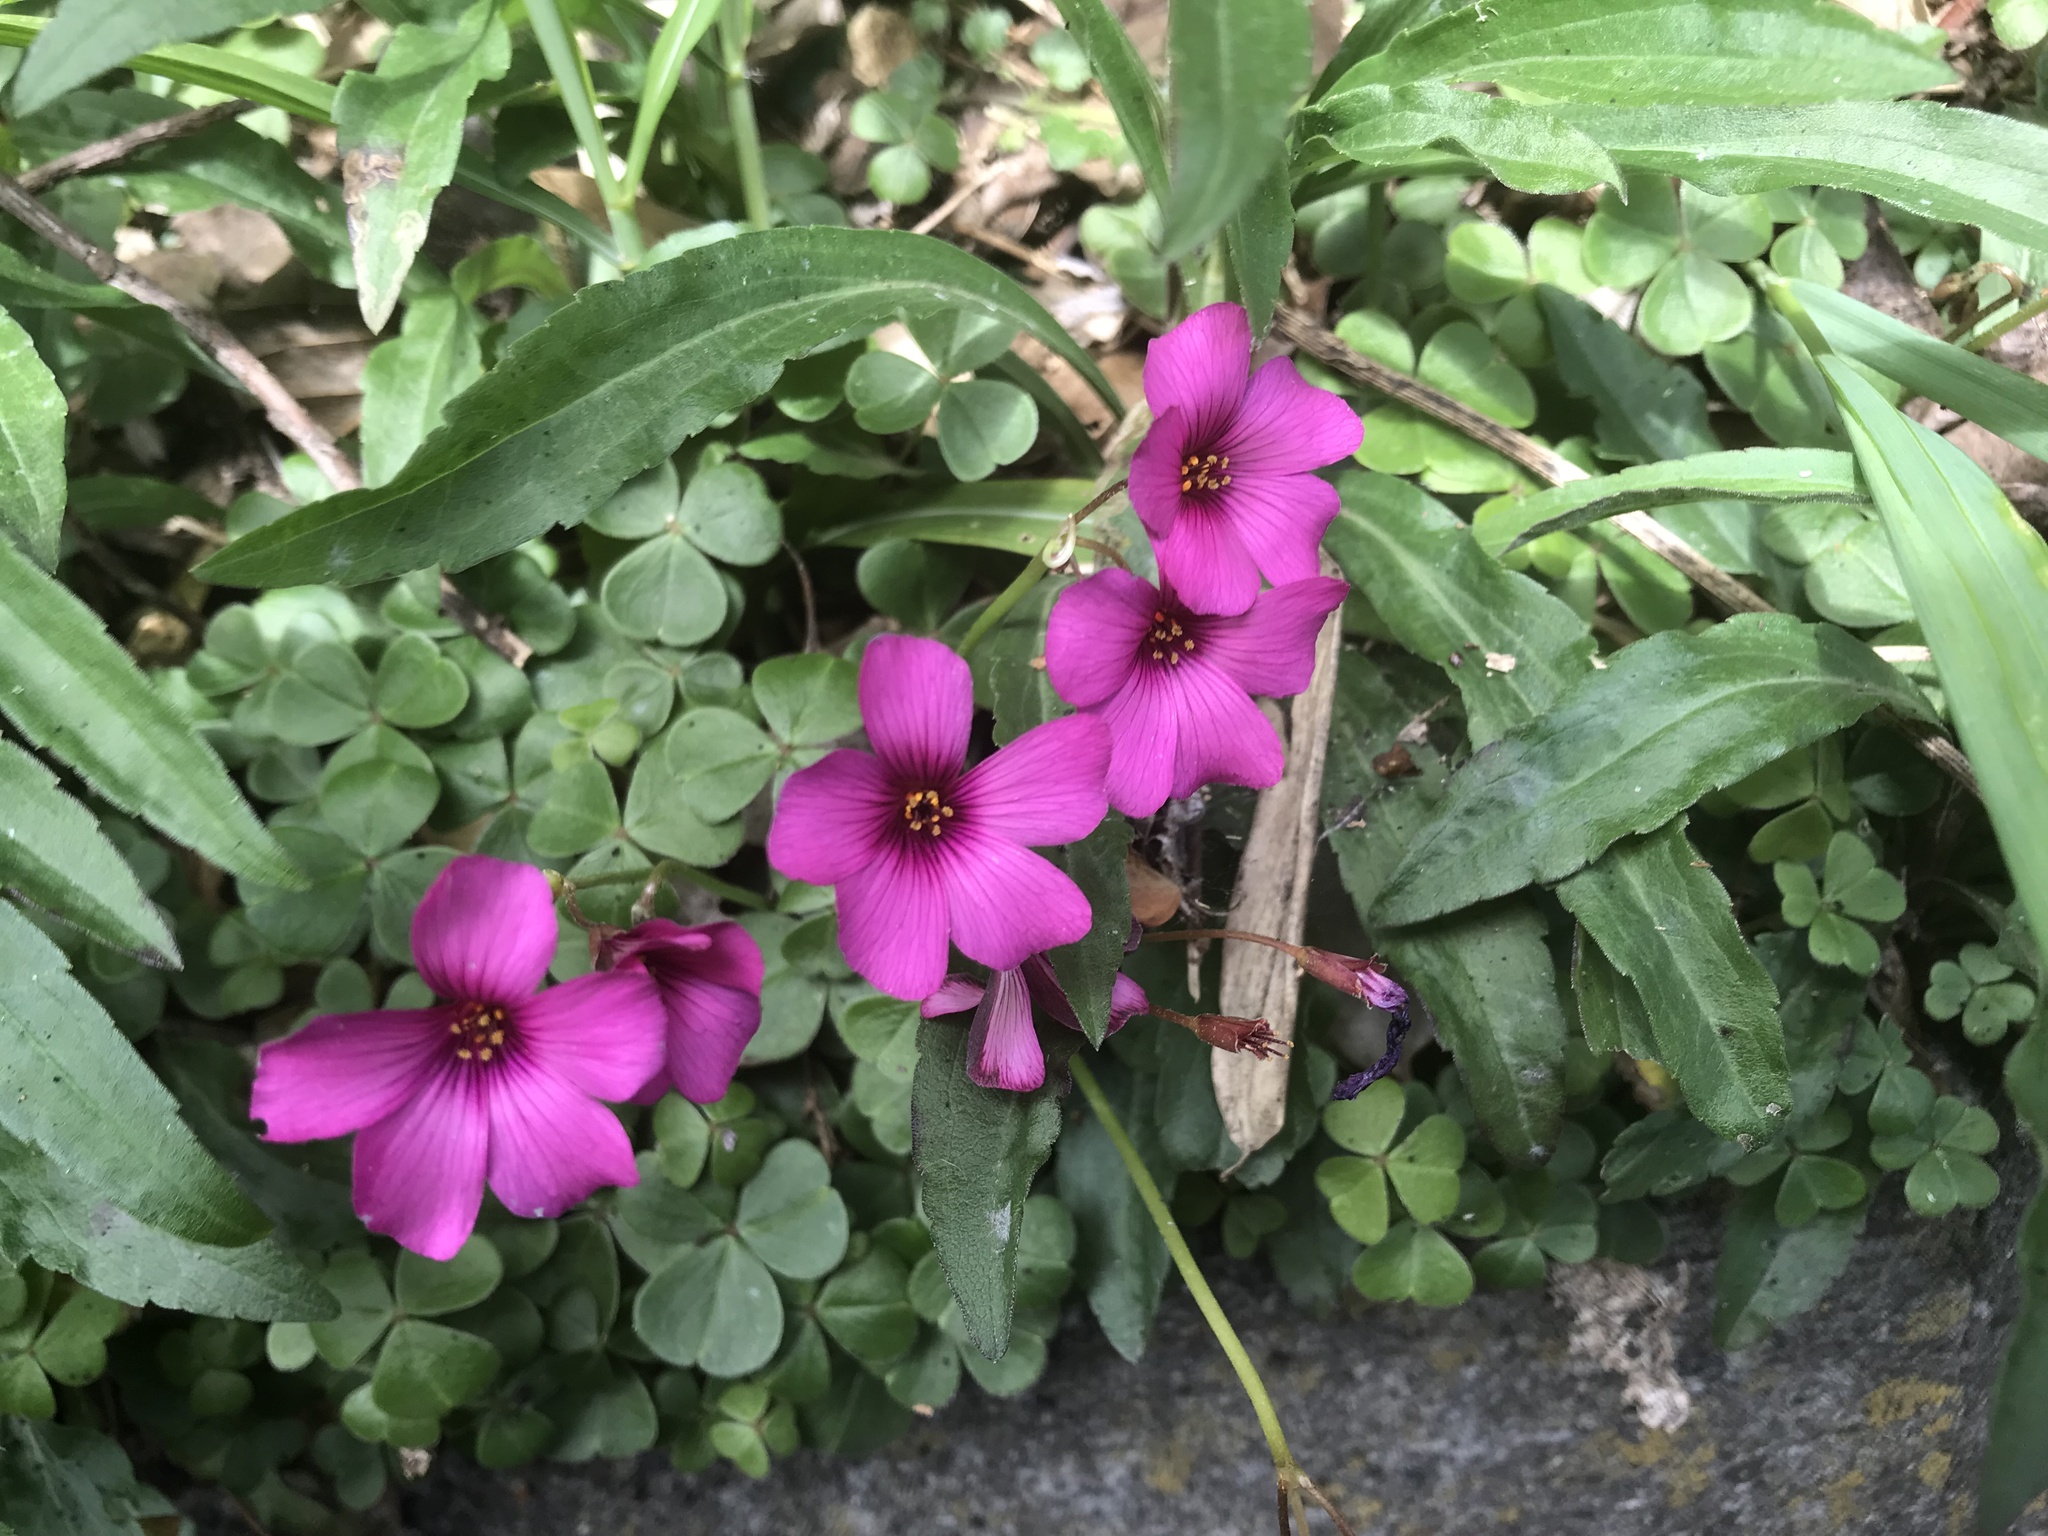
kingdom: Plantae
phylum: Tracheophyta
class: Magnoliopsida
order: Oxalidales
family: Oxalidaceae
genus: Oxalis
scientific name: Oxalis articulata
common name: Pink-sorrel
